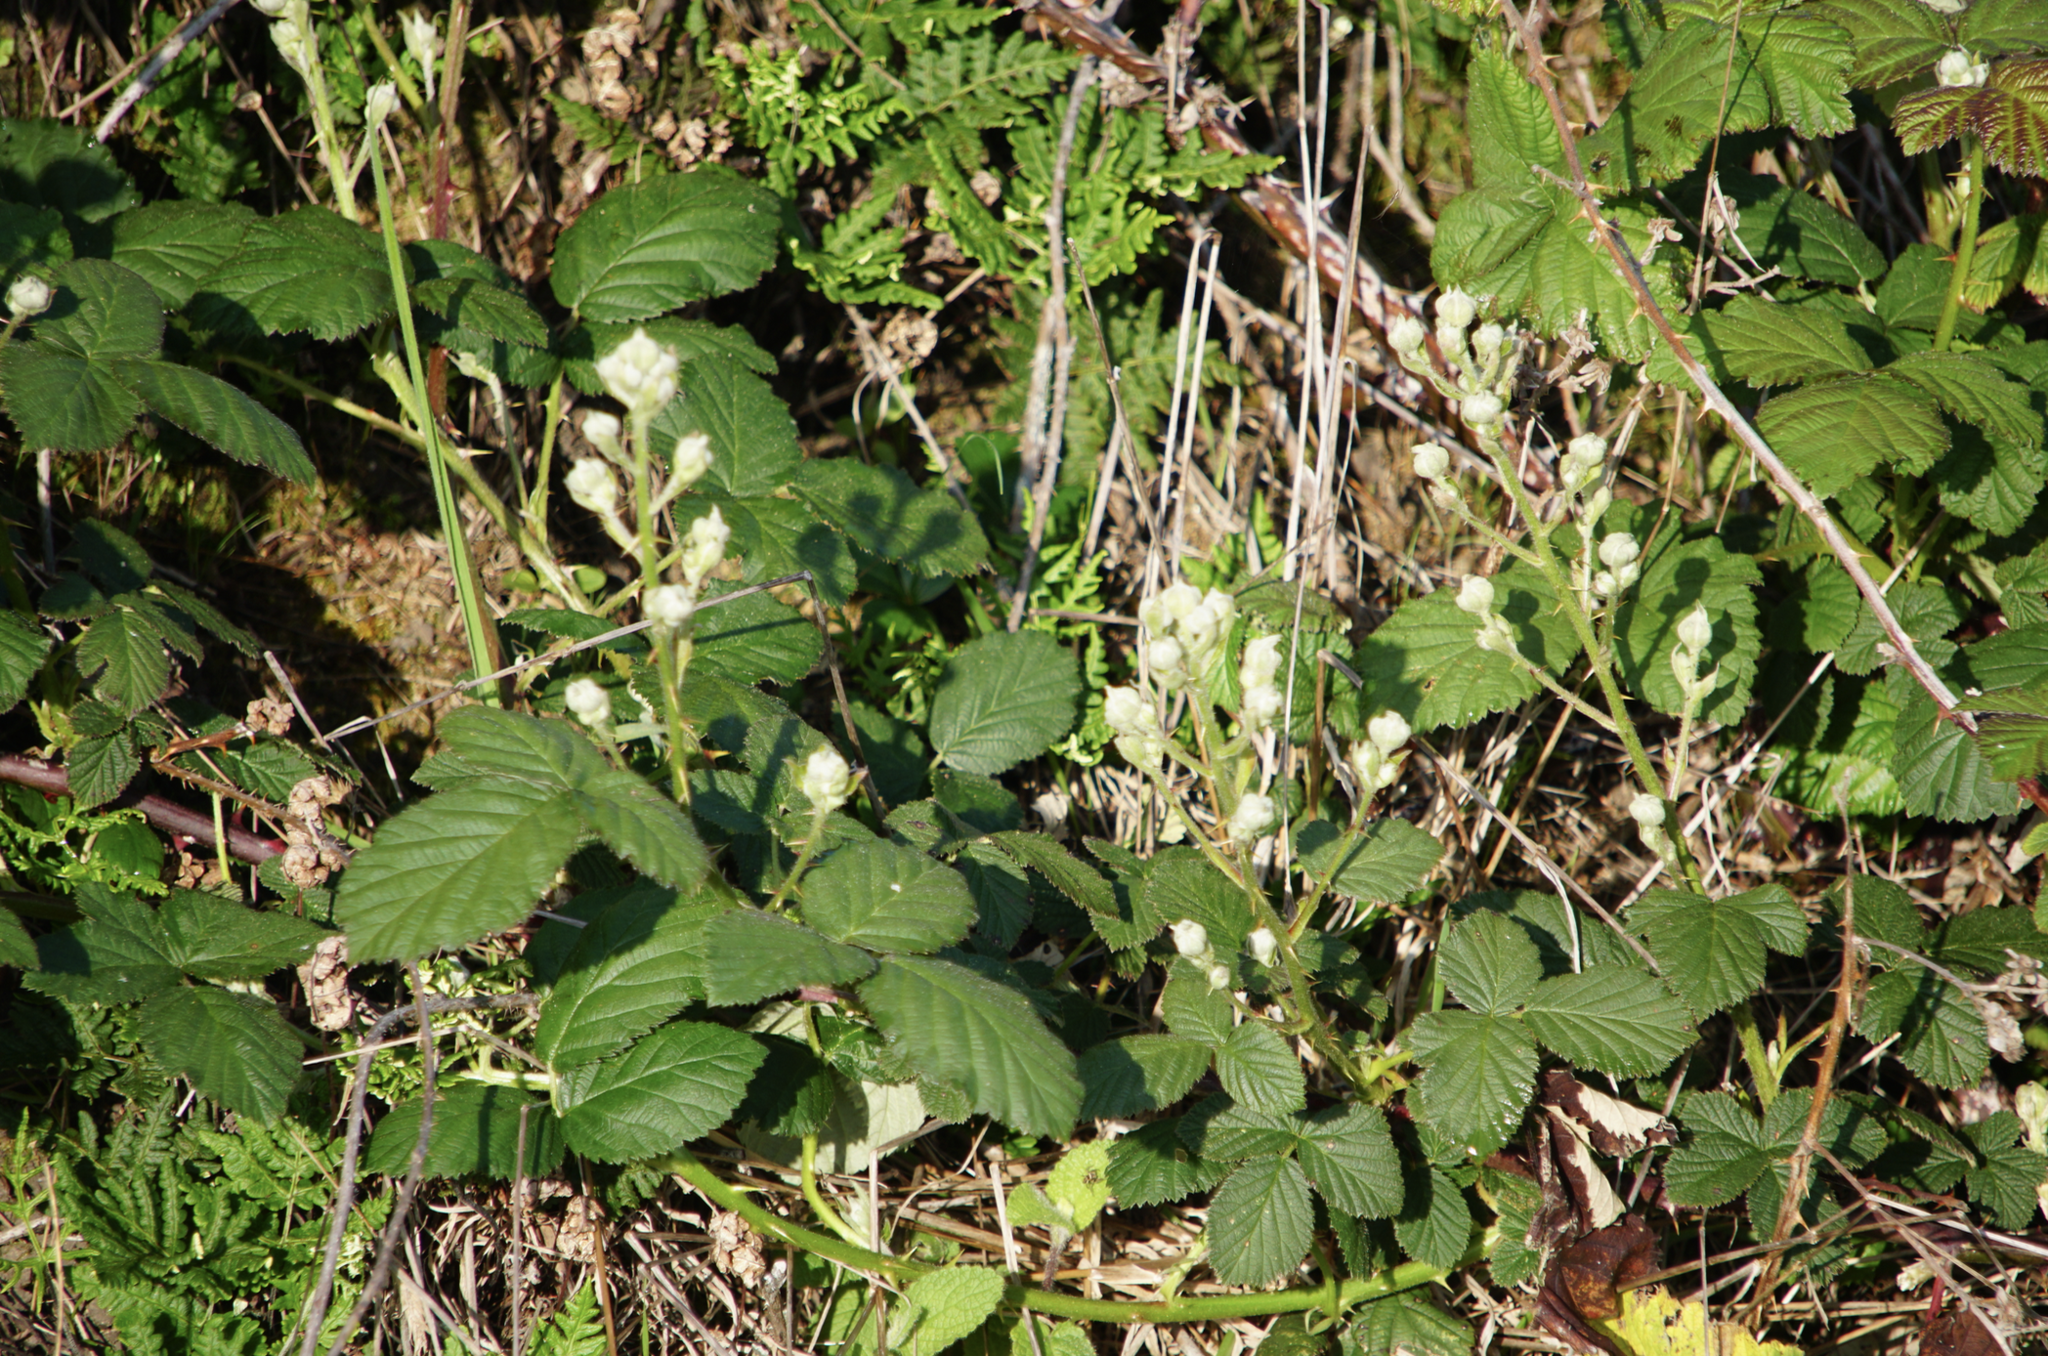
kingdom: Plantae
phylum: Tracheophyta
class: Magnoliopsida
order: Rosales
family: Rosaceae
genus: Rubus
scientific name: Rubus ursinus
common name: Pacific blackberry
